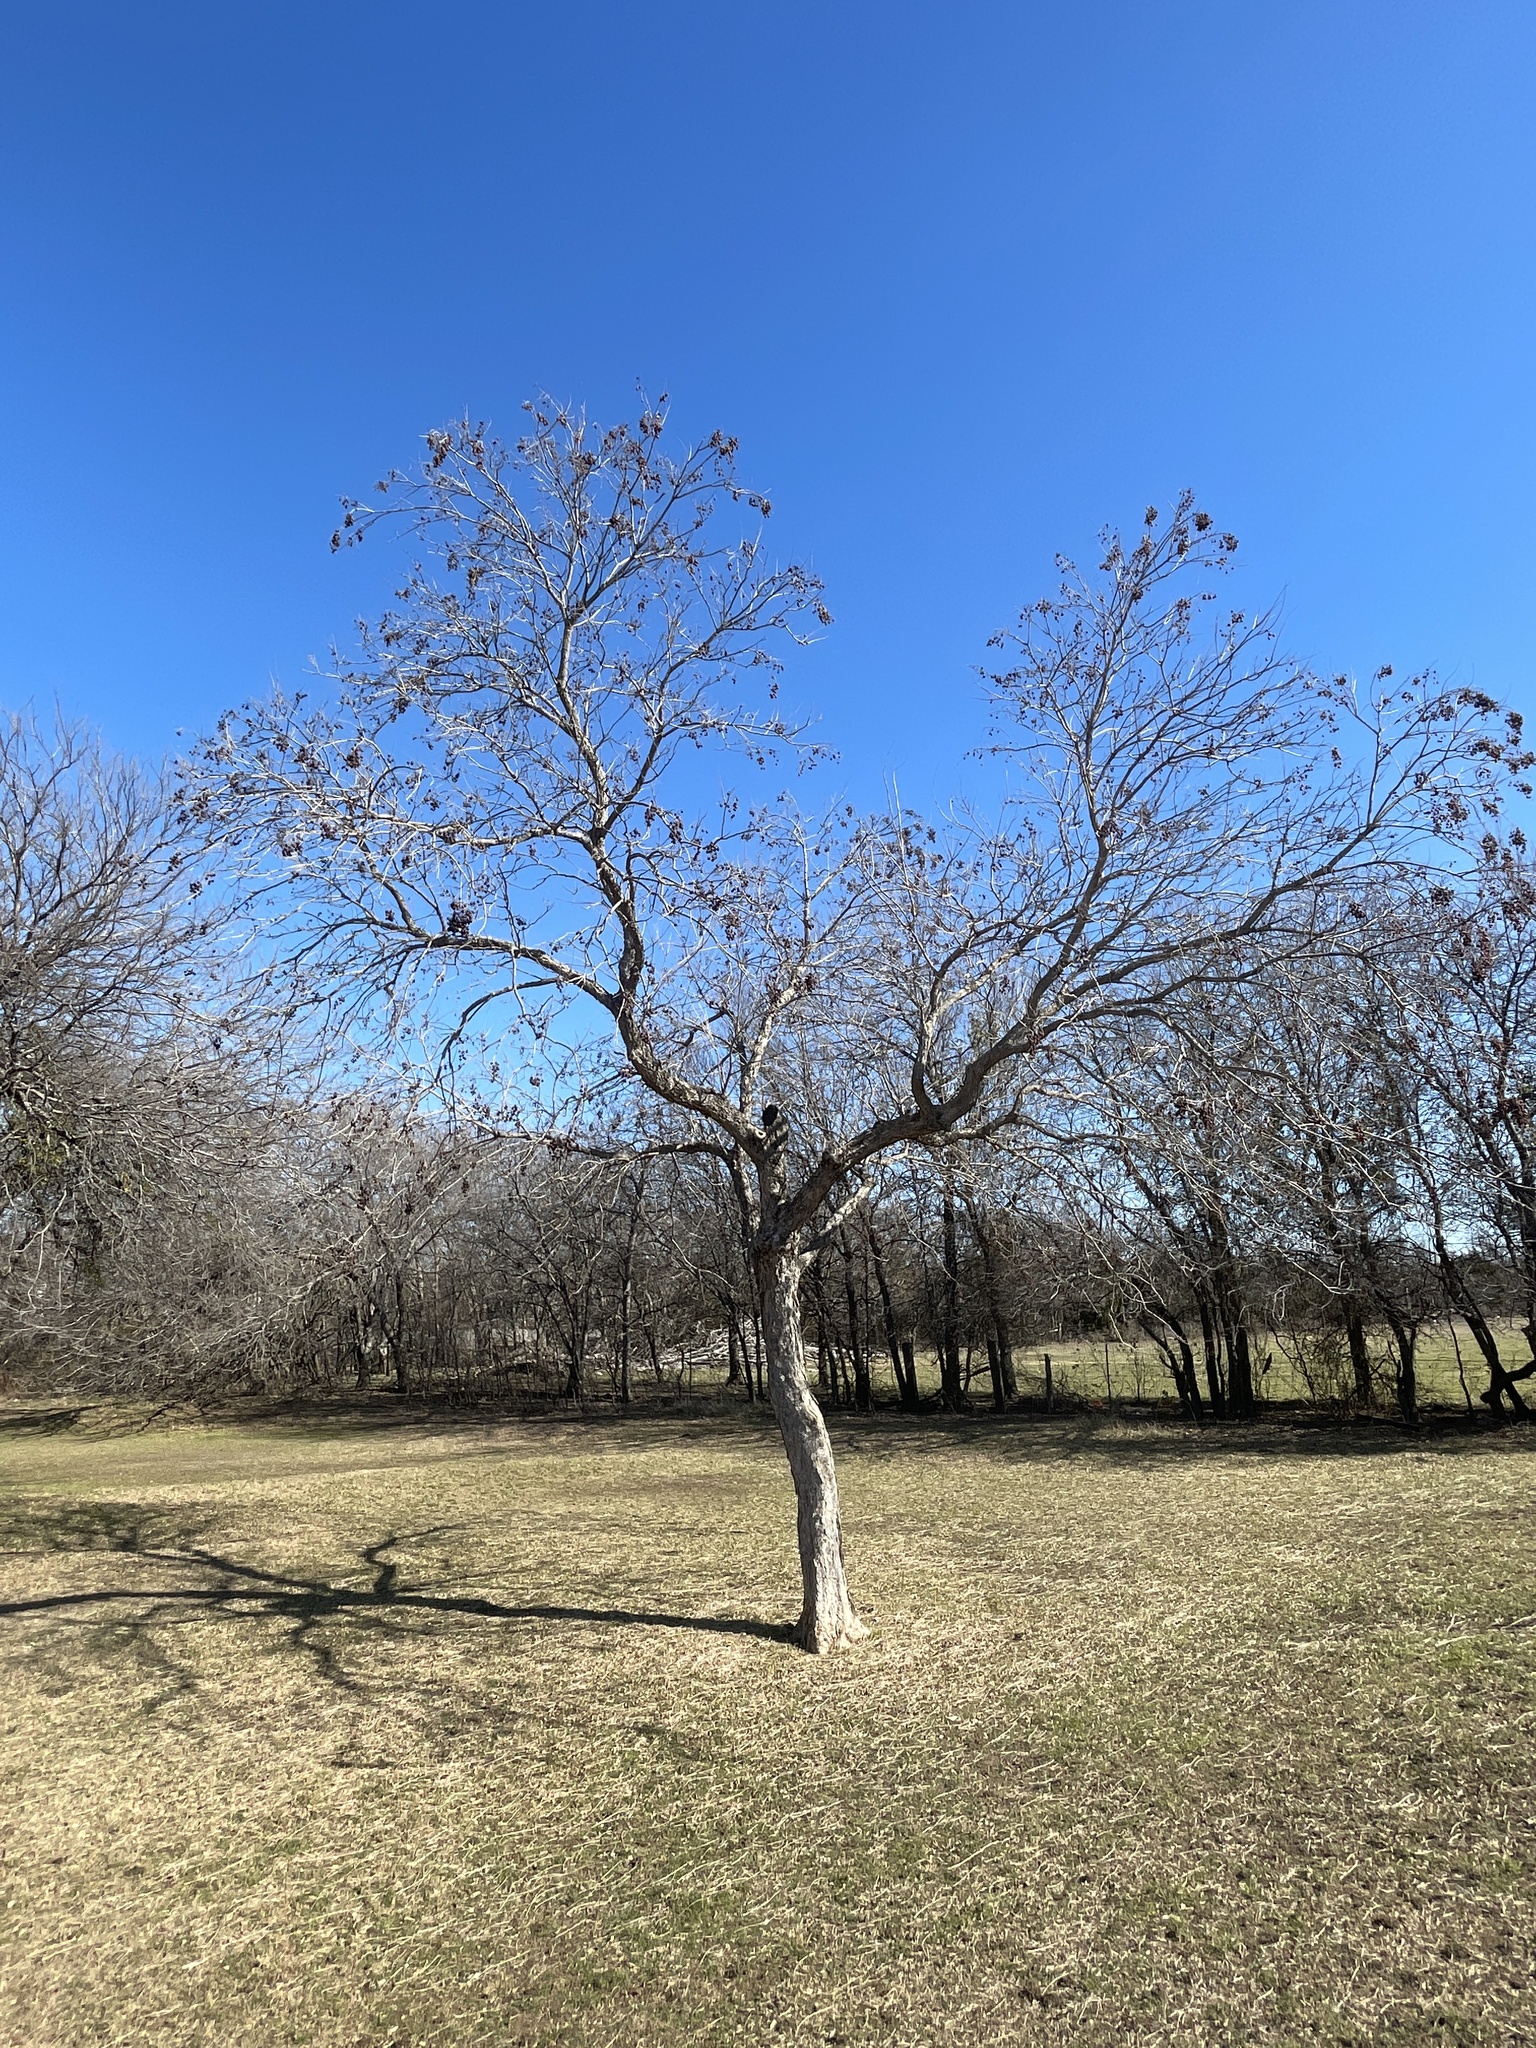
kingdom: Plantae
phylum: Tracheophyta
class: Magnoliopsida
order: Sapindales
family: Sapindaceae
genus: Sapindus
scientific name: Sapindus drummondii
